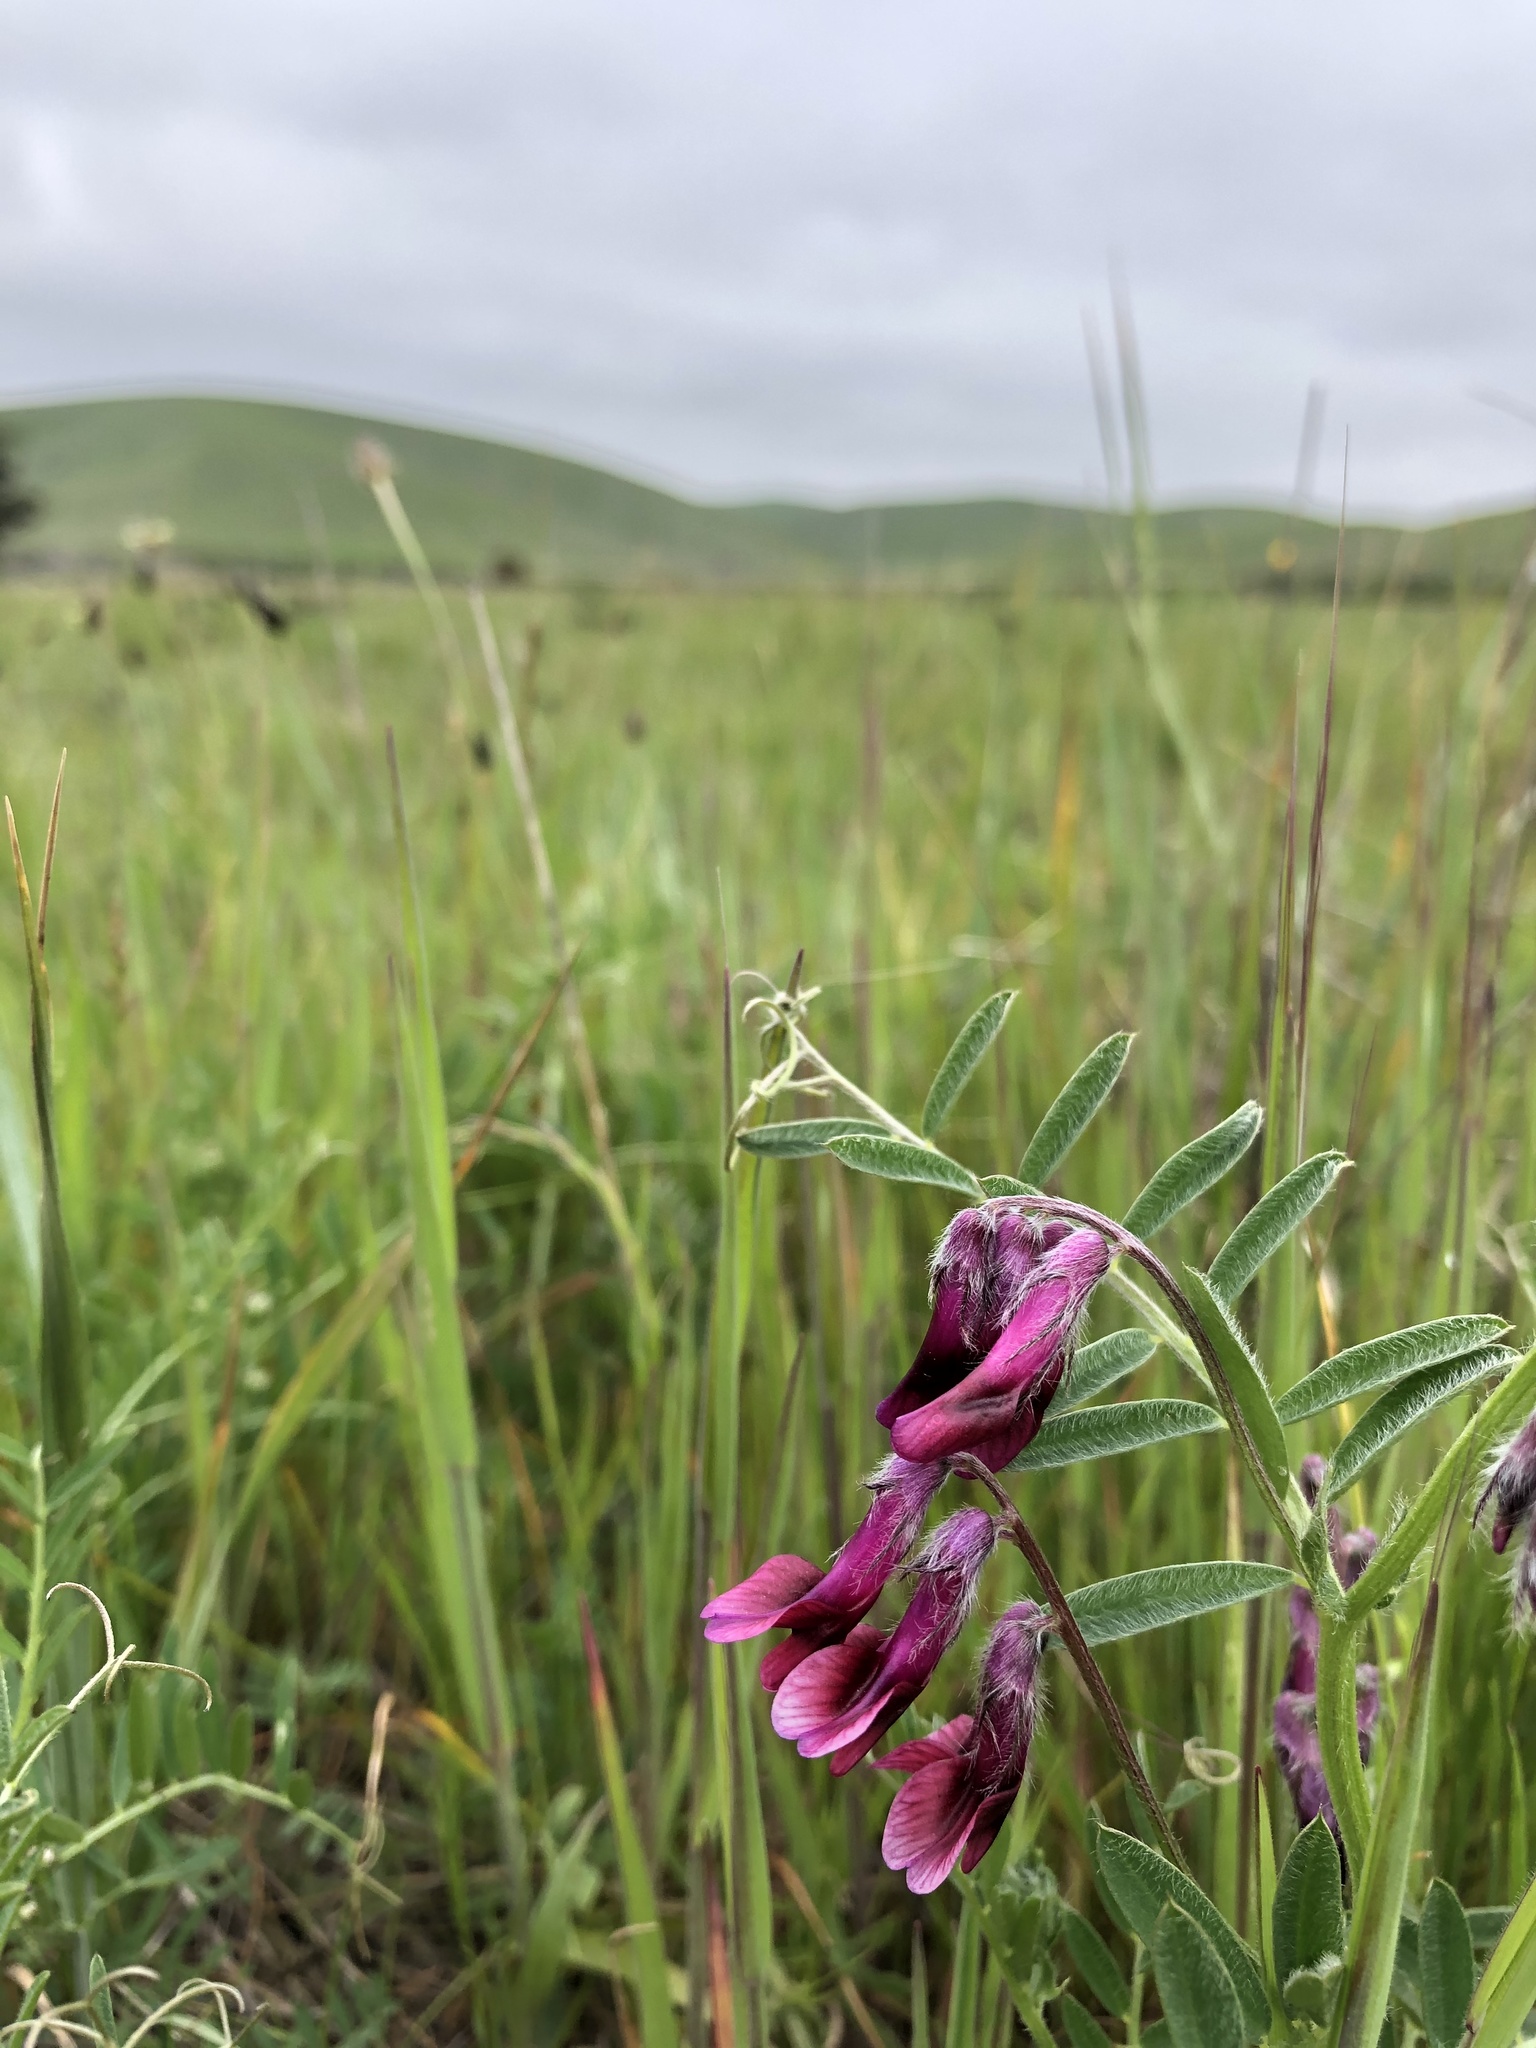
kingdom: Plantae
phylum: Tracheophyta
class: Magnoliopsida
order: Fabales
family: Fabaceae
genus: Vicia
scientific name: Vicia benghalensis
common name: Purple vetch
